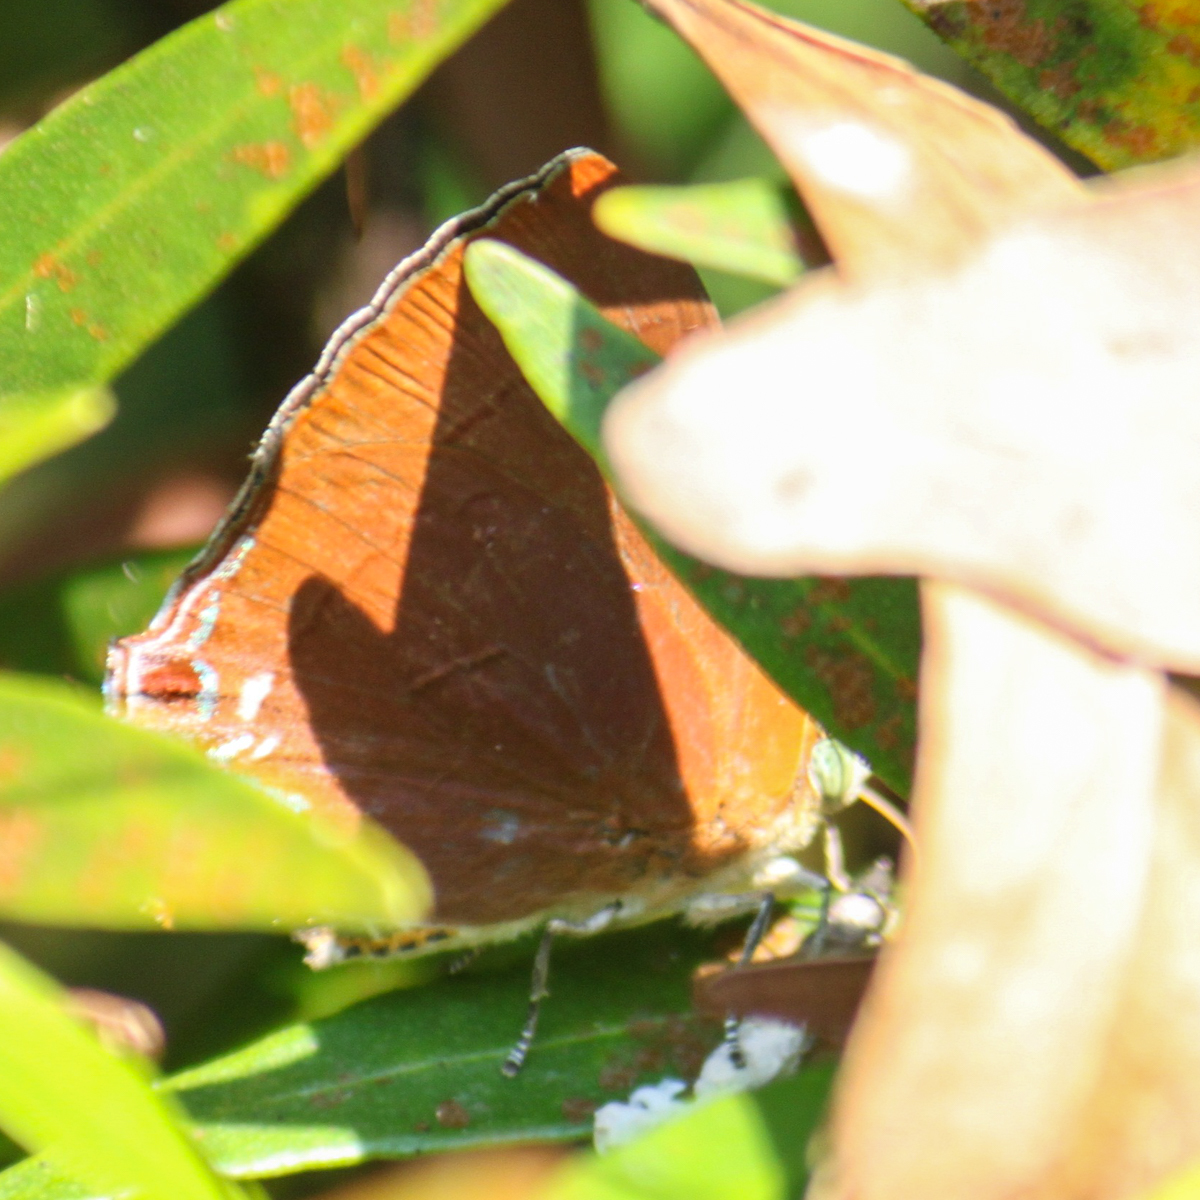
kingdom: Animalia
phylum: Arthropoda
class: Insecta
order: Lepidoptera
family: Lycaenidae
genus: Remelana
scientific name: Remelana jangala
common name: Chocolate royal
